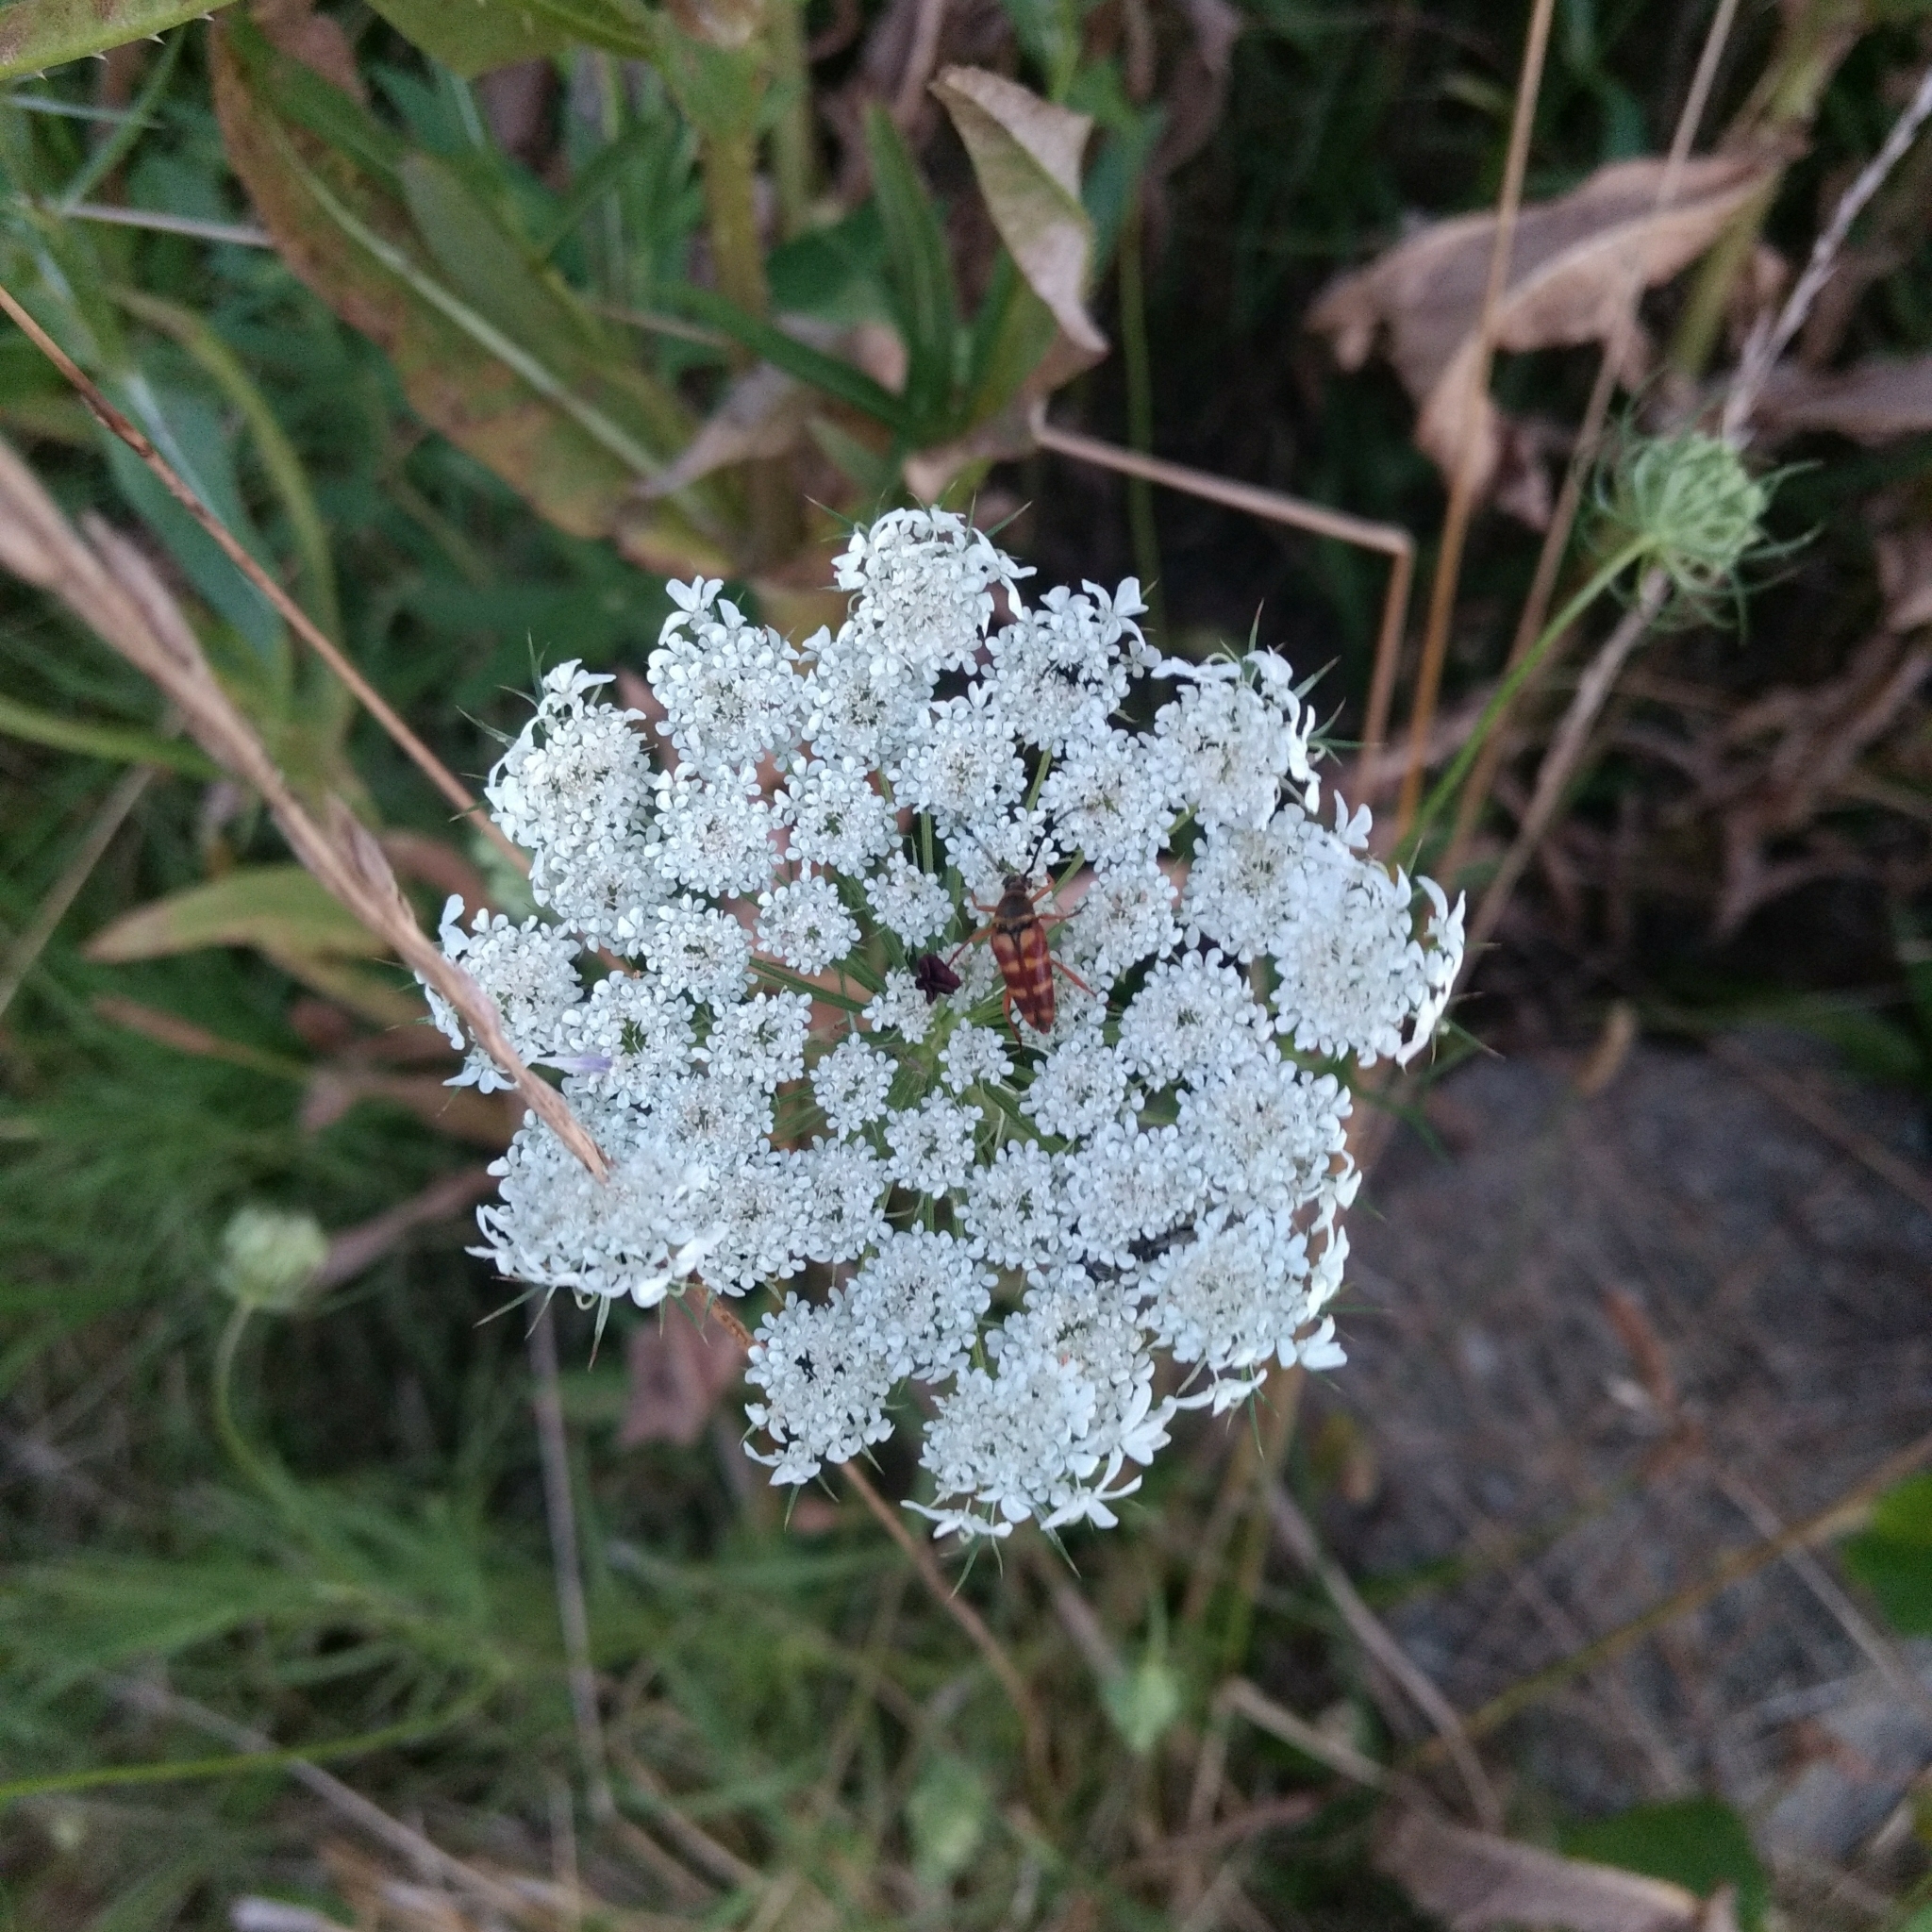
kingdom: Plantae
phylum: Tracheophyta
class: Magnoliopsida
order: Apiales
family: Apiaceae
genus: Daucus
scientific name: Daucus carota
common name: Wild carrot
